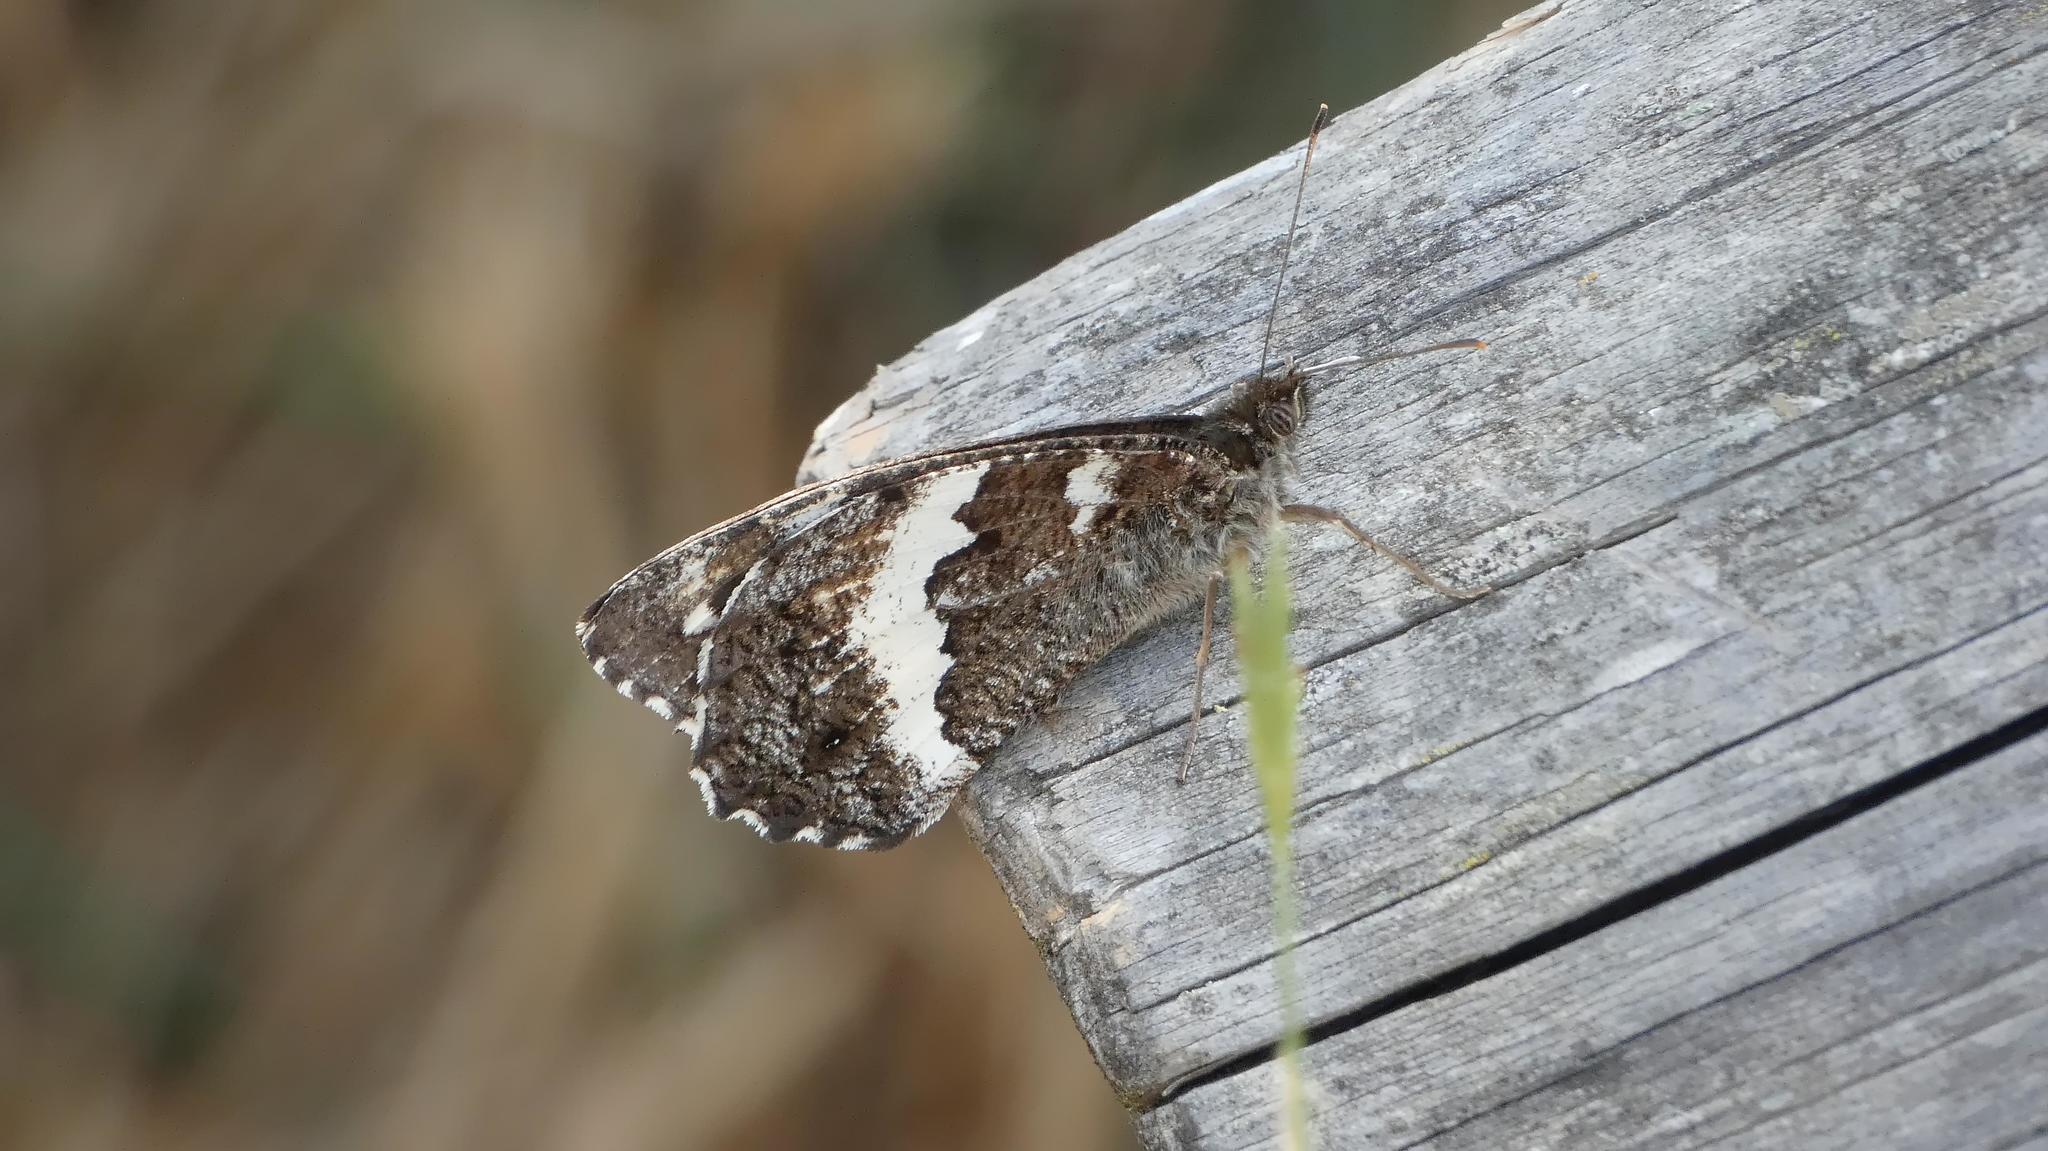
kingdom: Animalia
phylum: Arthropoda
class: Insecta
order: Lepidoptera
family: Lycaenidae
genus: Loweia
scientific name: Loweia tityrus
